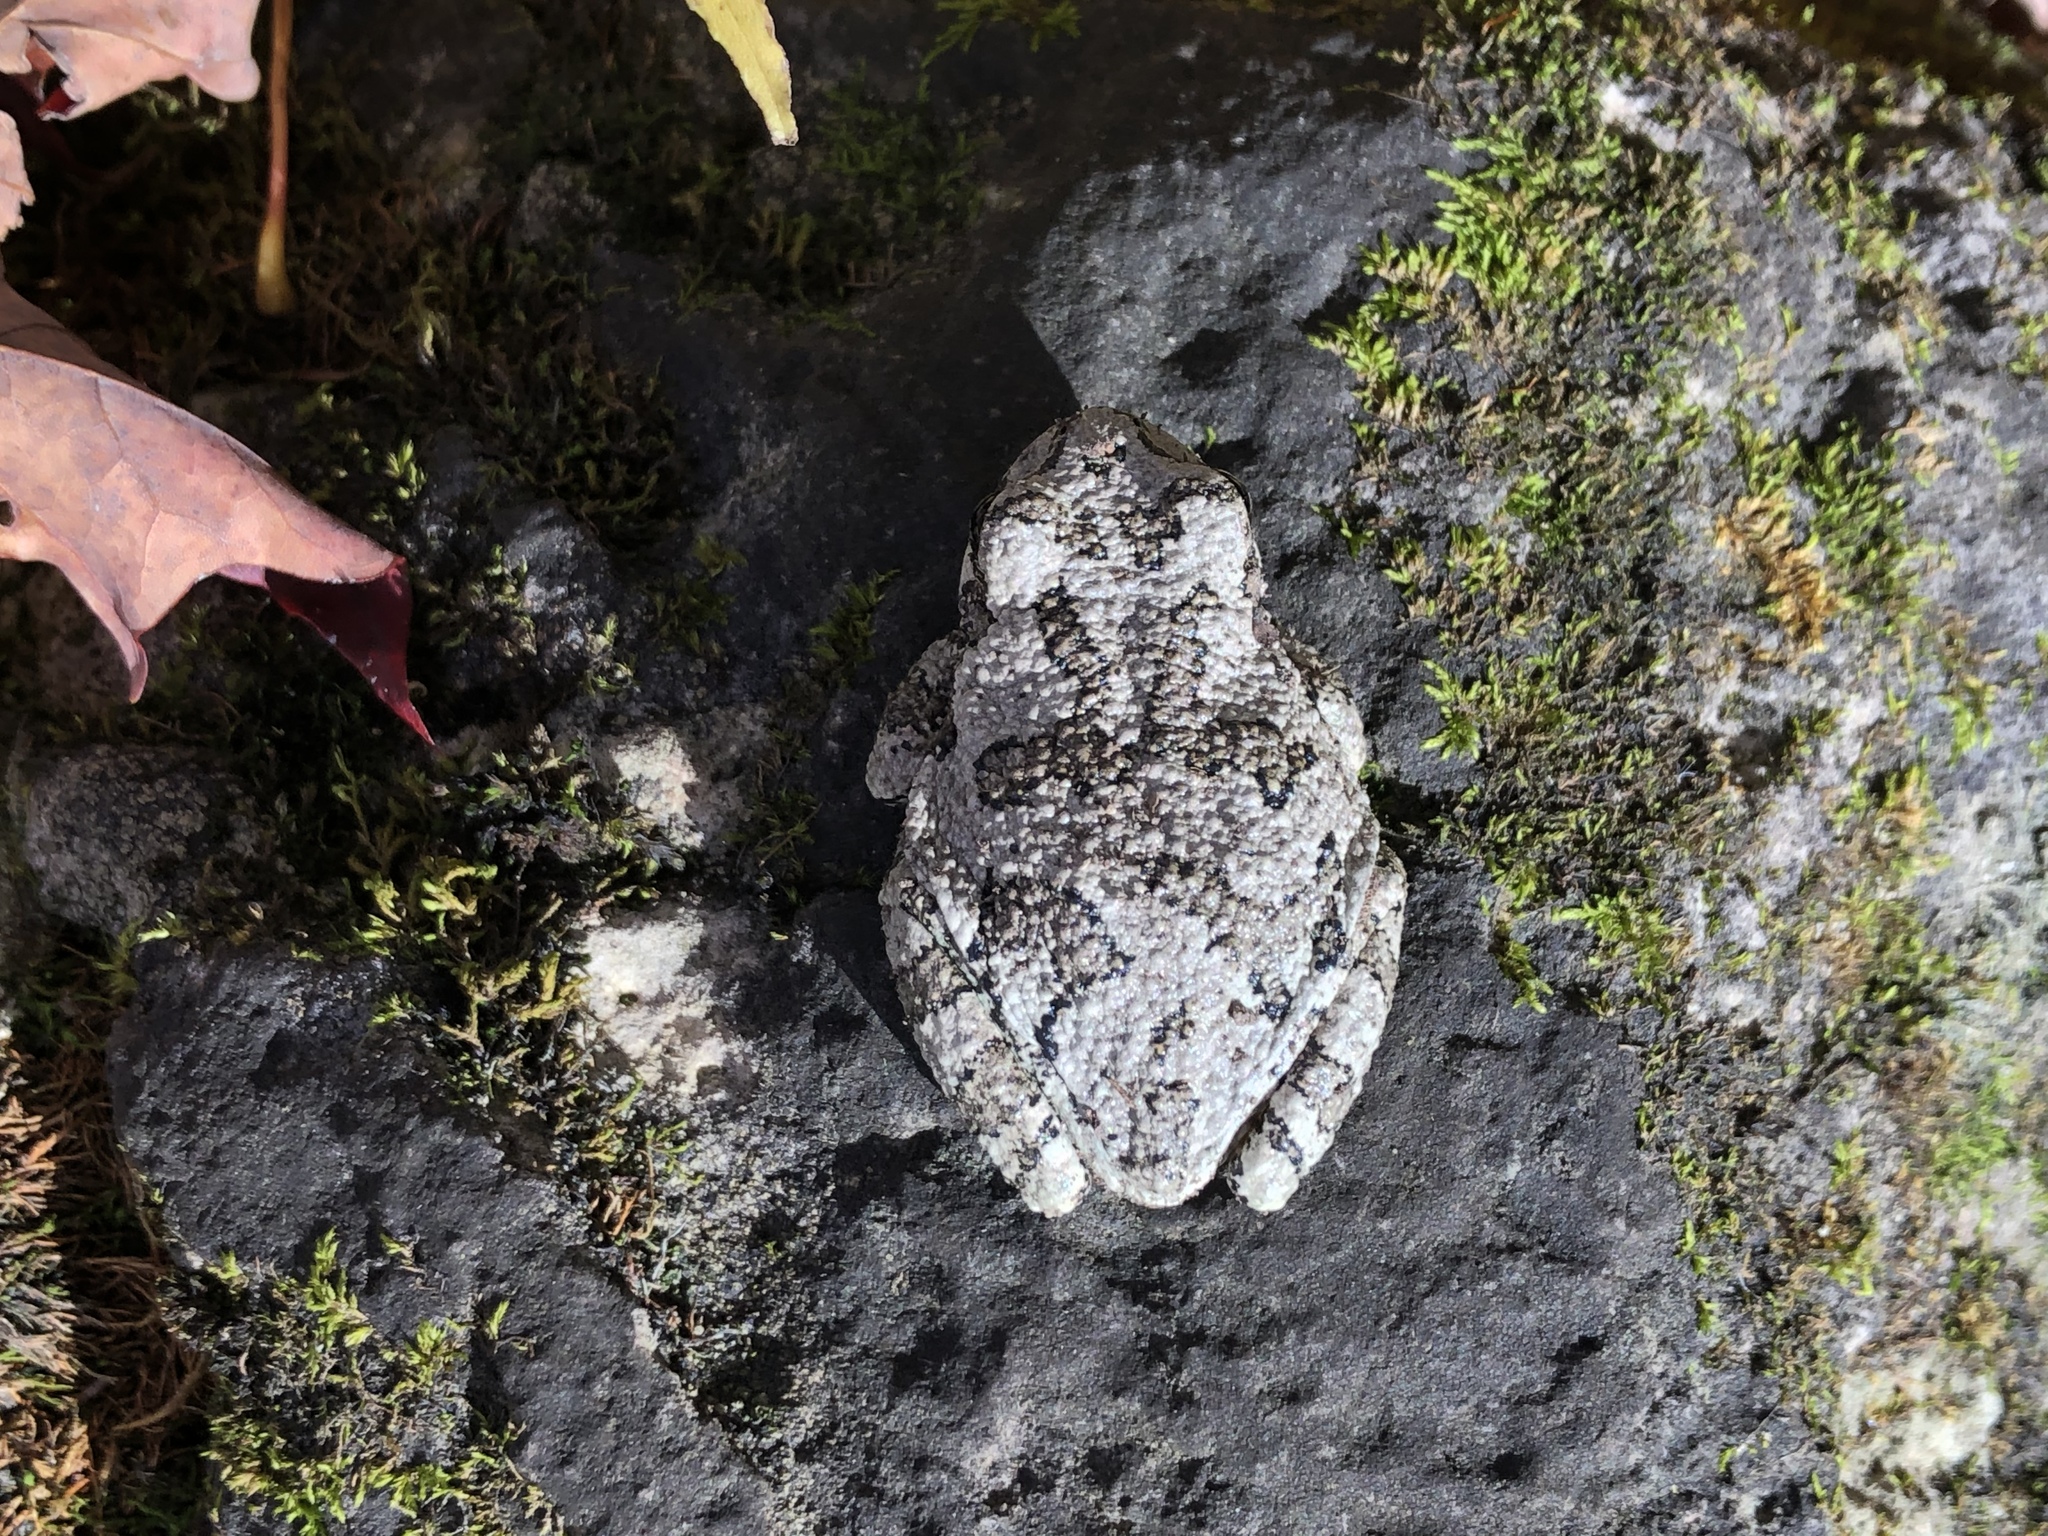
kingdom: Animalia
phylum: Chordata
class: Amphibia
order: Anura
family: Hylidae
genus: Dryophytes
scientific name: Dryophytes versicolor
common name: Gray treefrog
